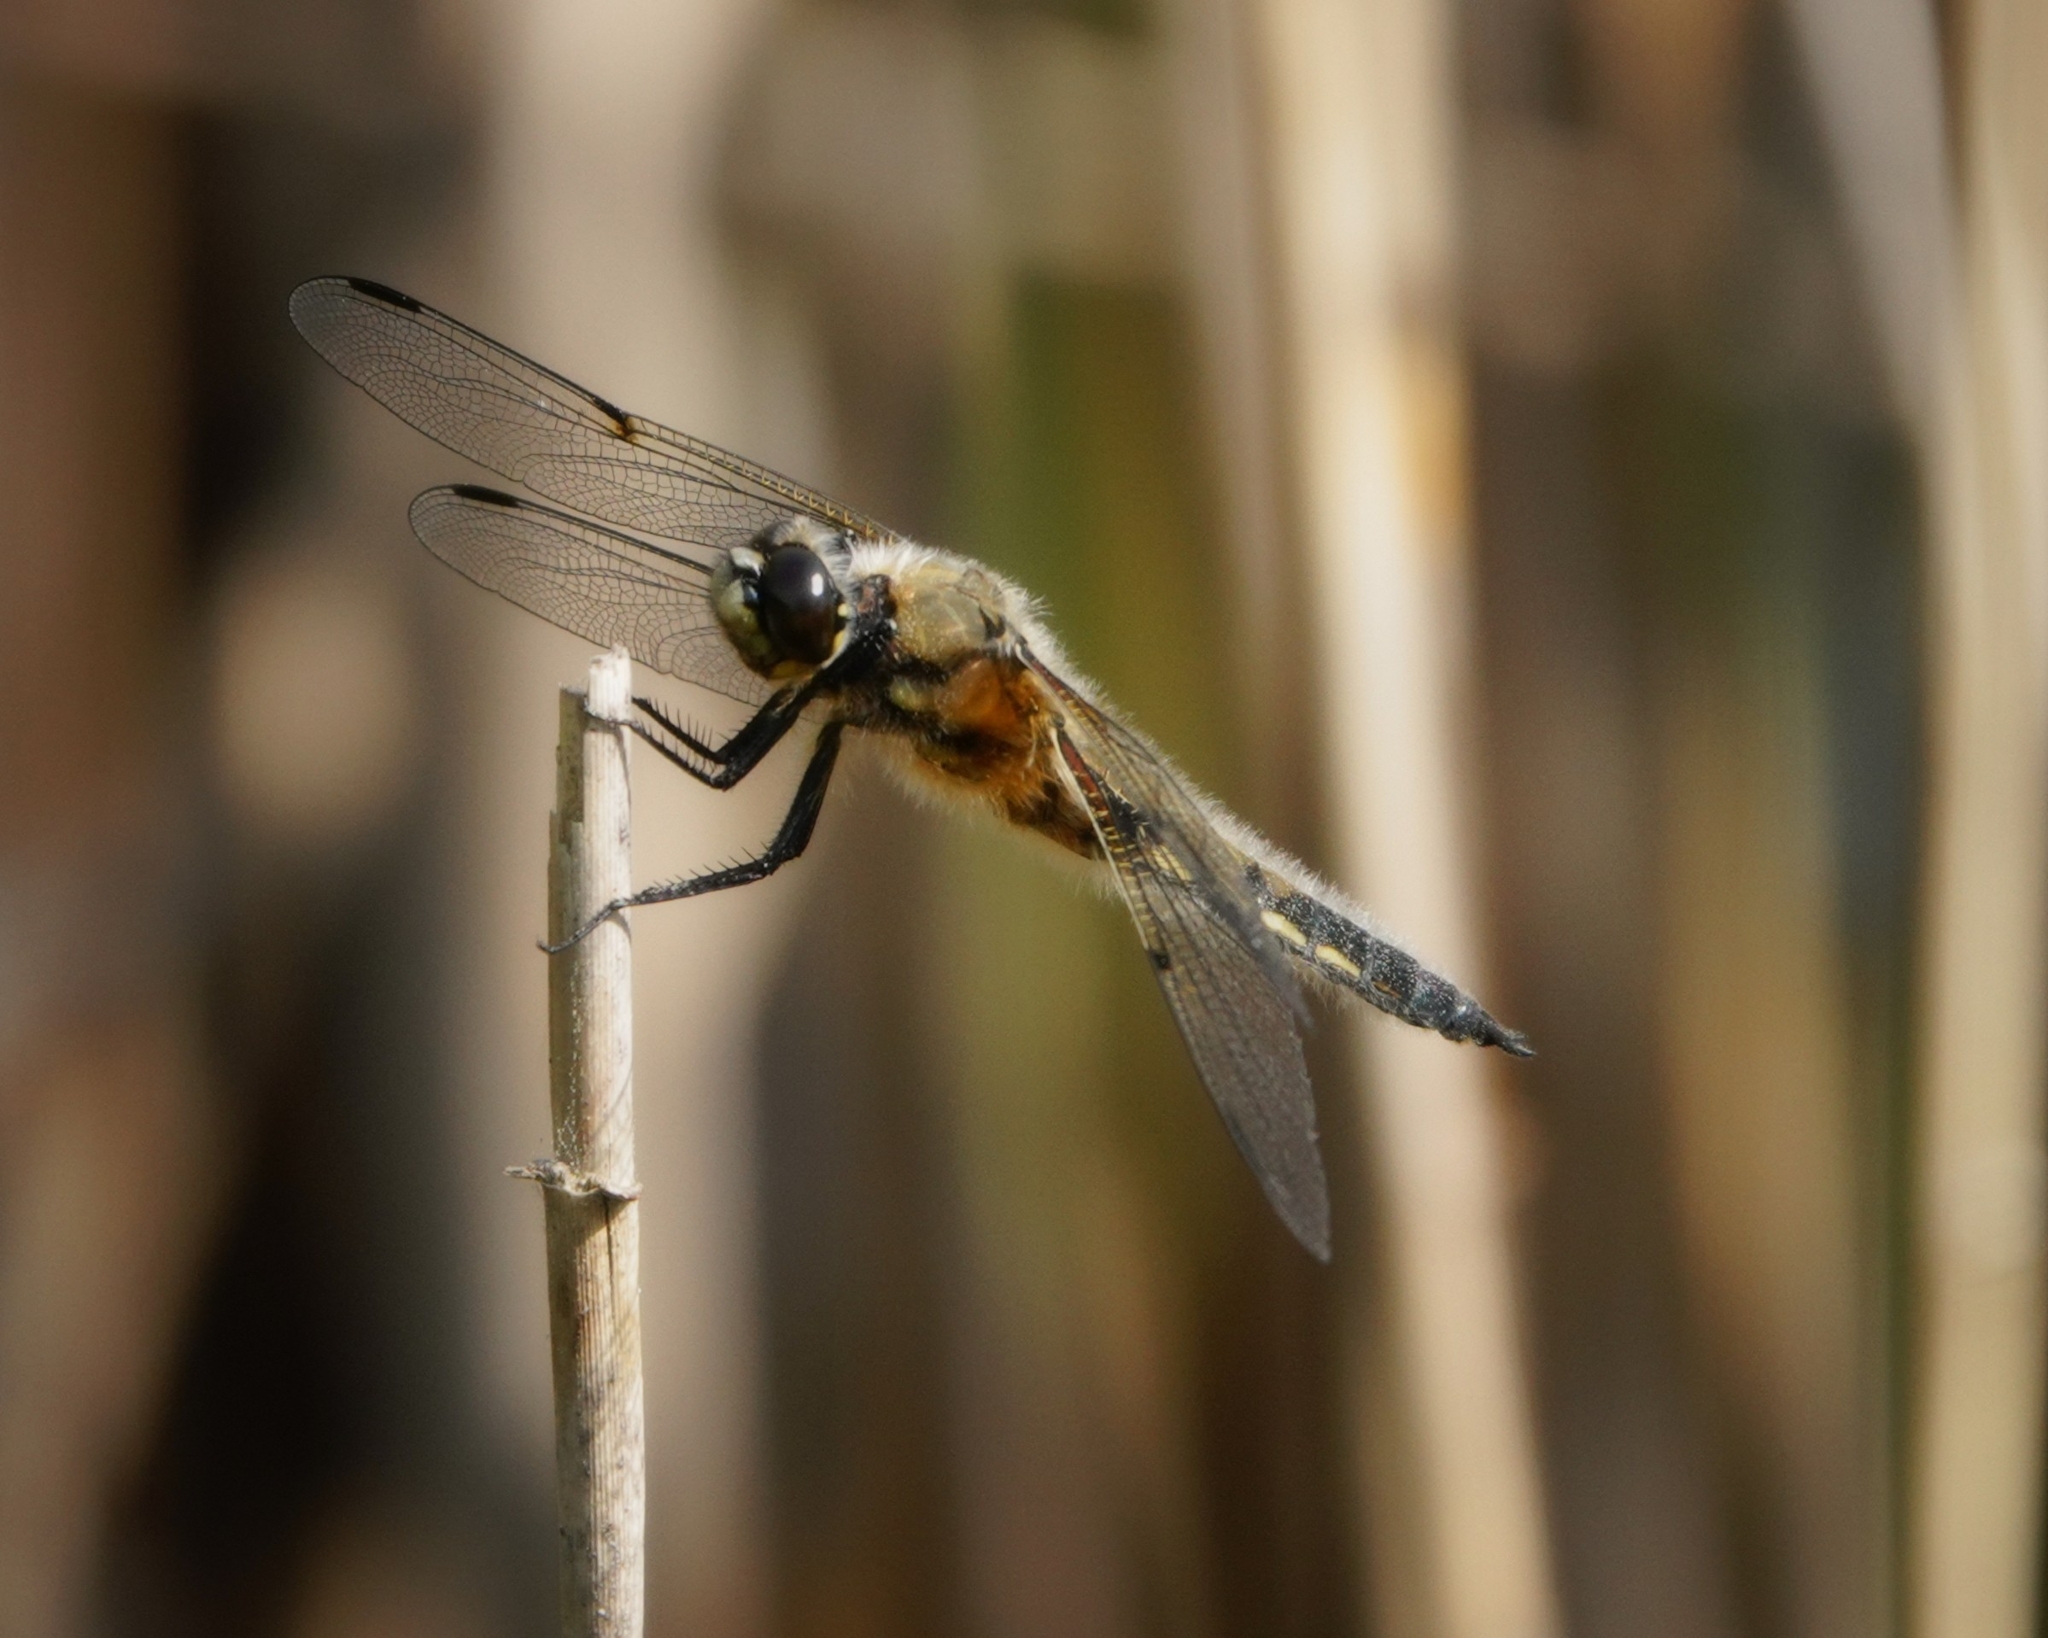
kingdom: Animalia
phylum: Arthropoda
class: Insecta
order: Odonata
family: Libellulidae
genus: Libellula
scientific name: Libellula quadrimaculata
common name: Four-spotted chaser
